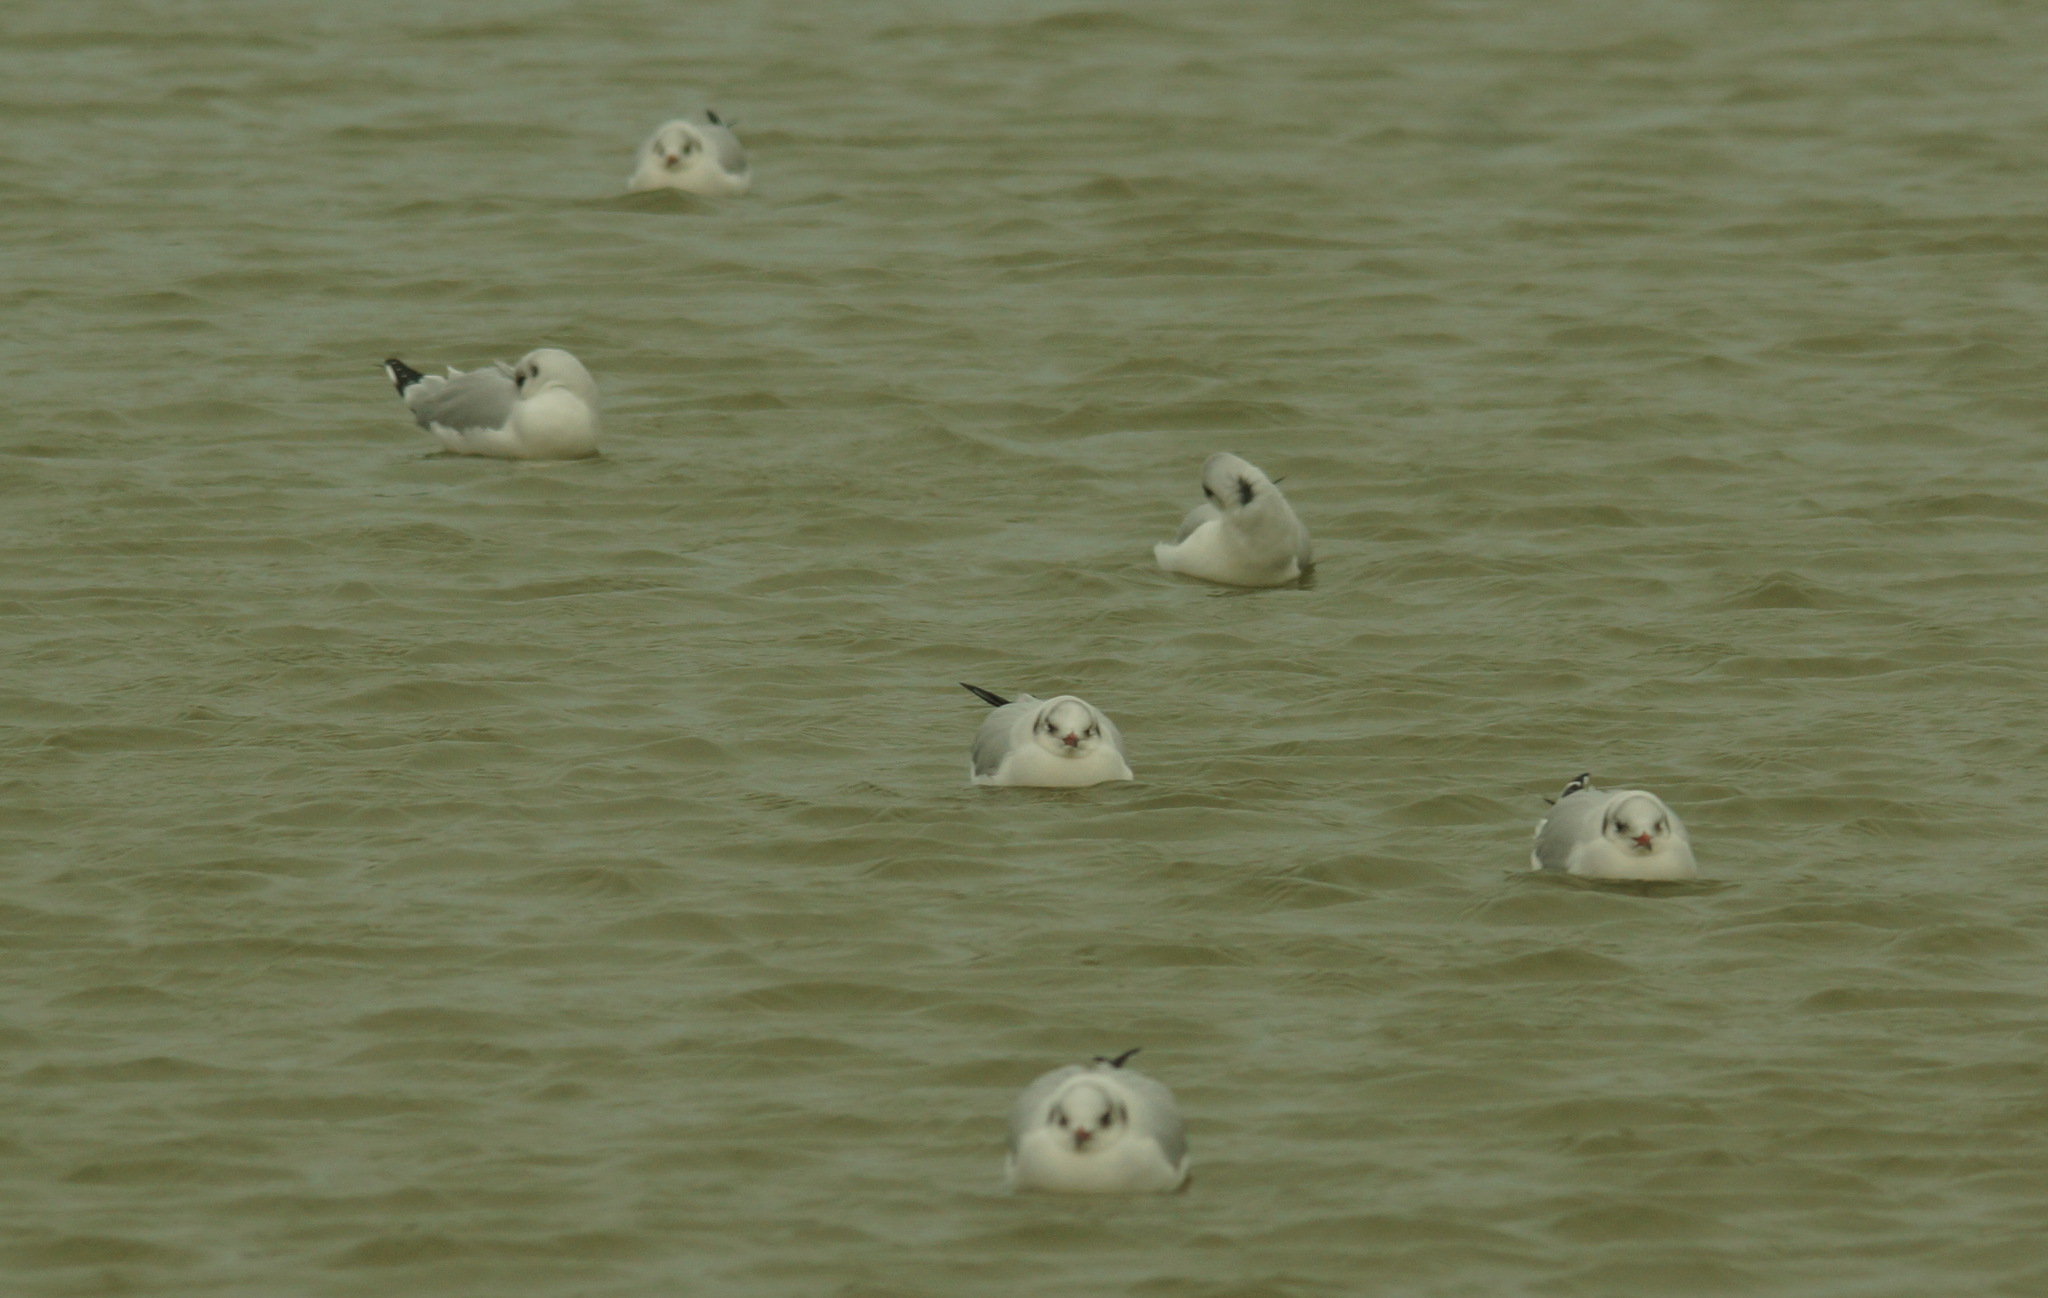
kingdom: Animalia
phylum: Chordata
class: Aves
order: Charadriiformes
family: Laridae
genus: Chroicocephalus
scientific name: Chroicocephalus ridibundus
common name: Black-headed gull
